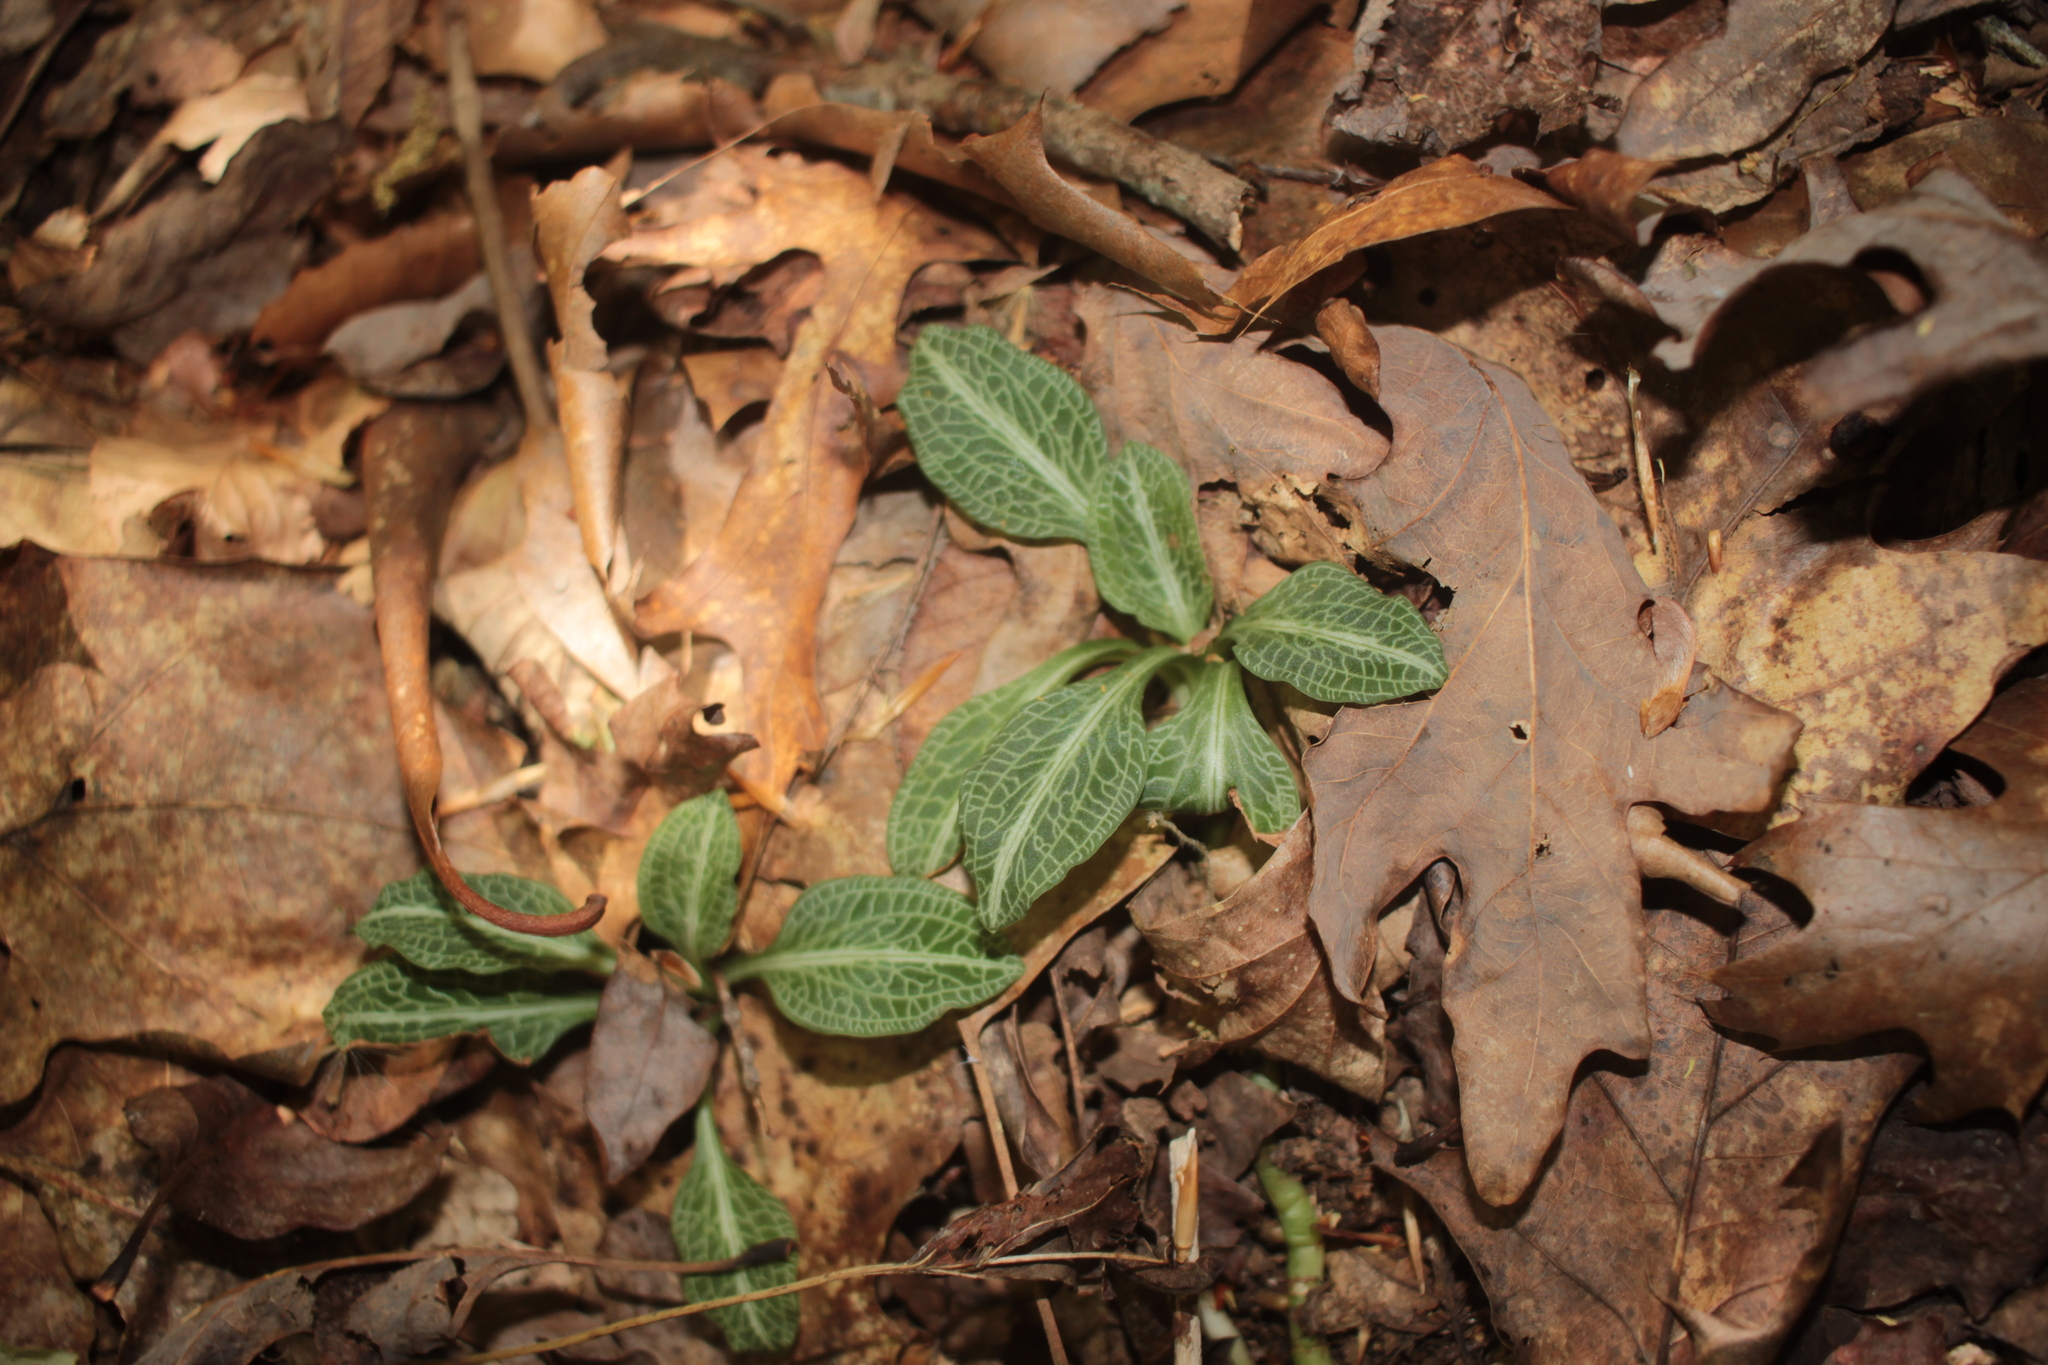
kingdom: Plantae
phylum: Tracheophyta
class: Liliopsida
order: Asparagales
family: Orchidaceae
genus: Goodyera
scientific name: Goodyera pubescens
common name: Downy rattlesnake-plantain
